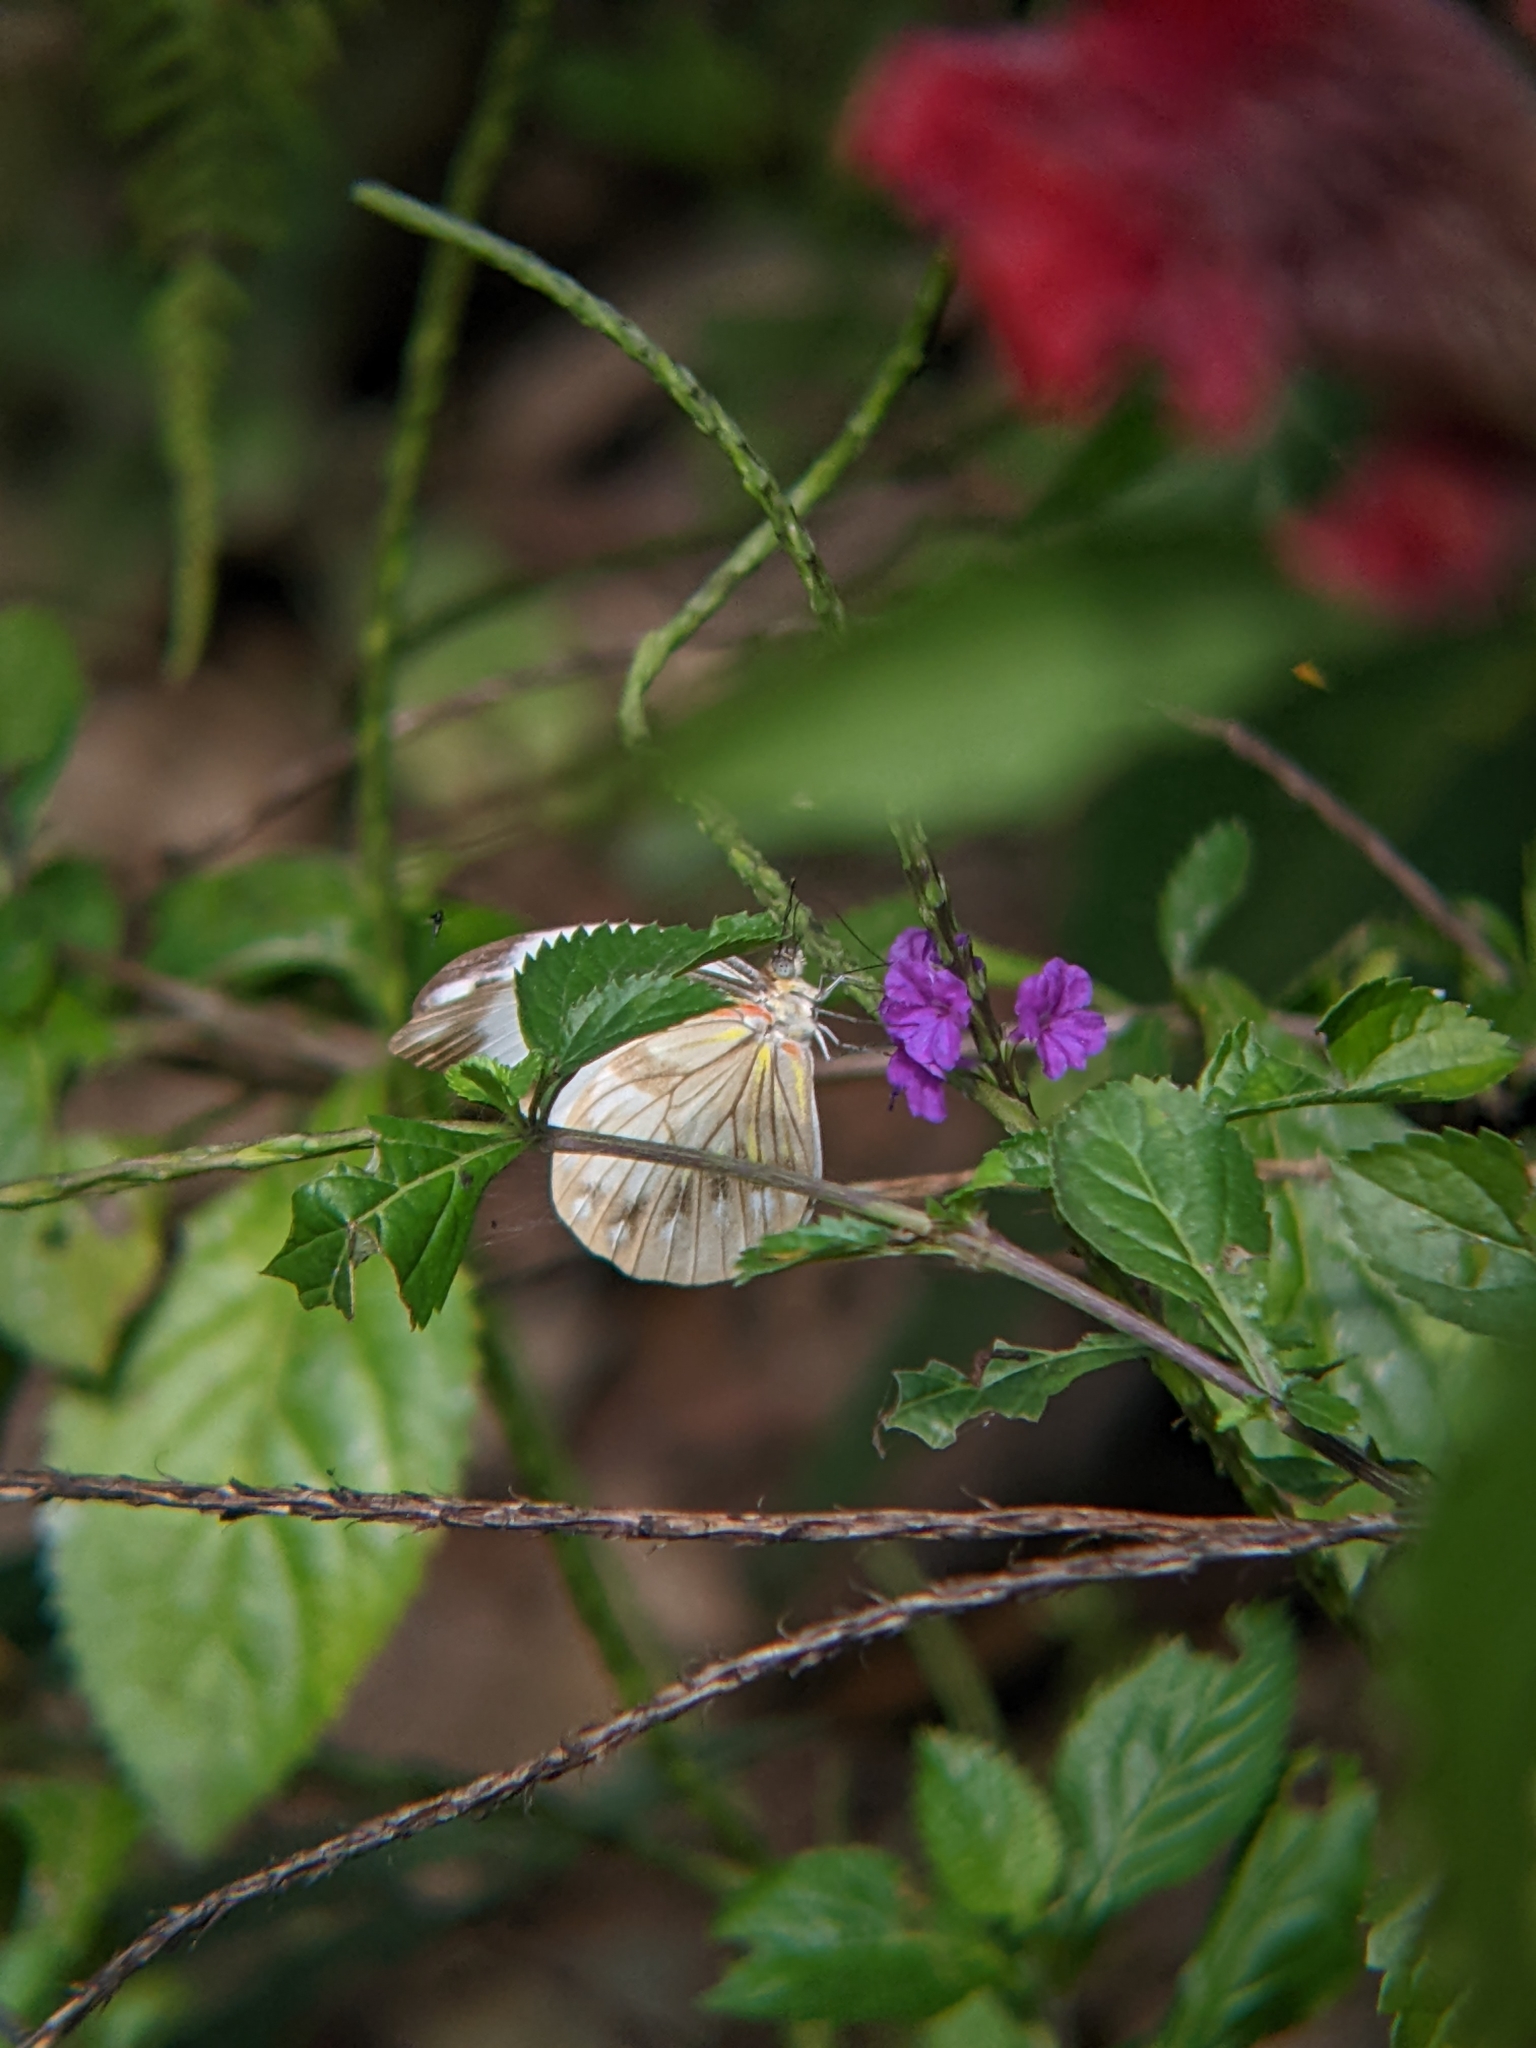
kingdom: Animalia
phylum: Arthropoda
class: Insecta
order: Lepidoptera
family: Pieridae
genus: Pieriballia
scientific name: Pieriballia viardi
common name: Painted white
